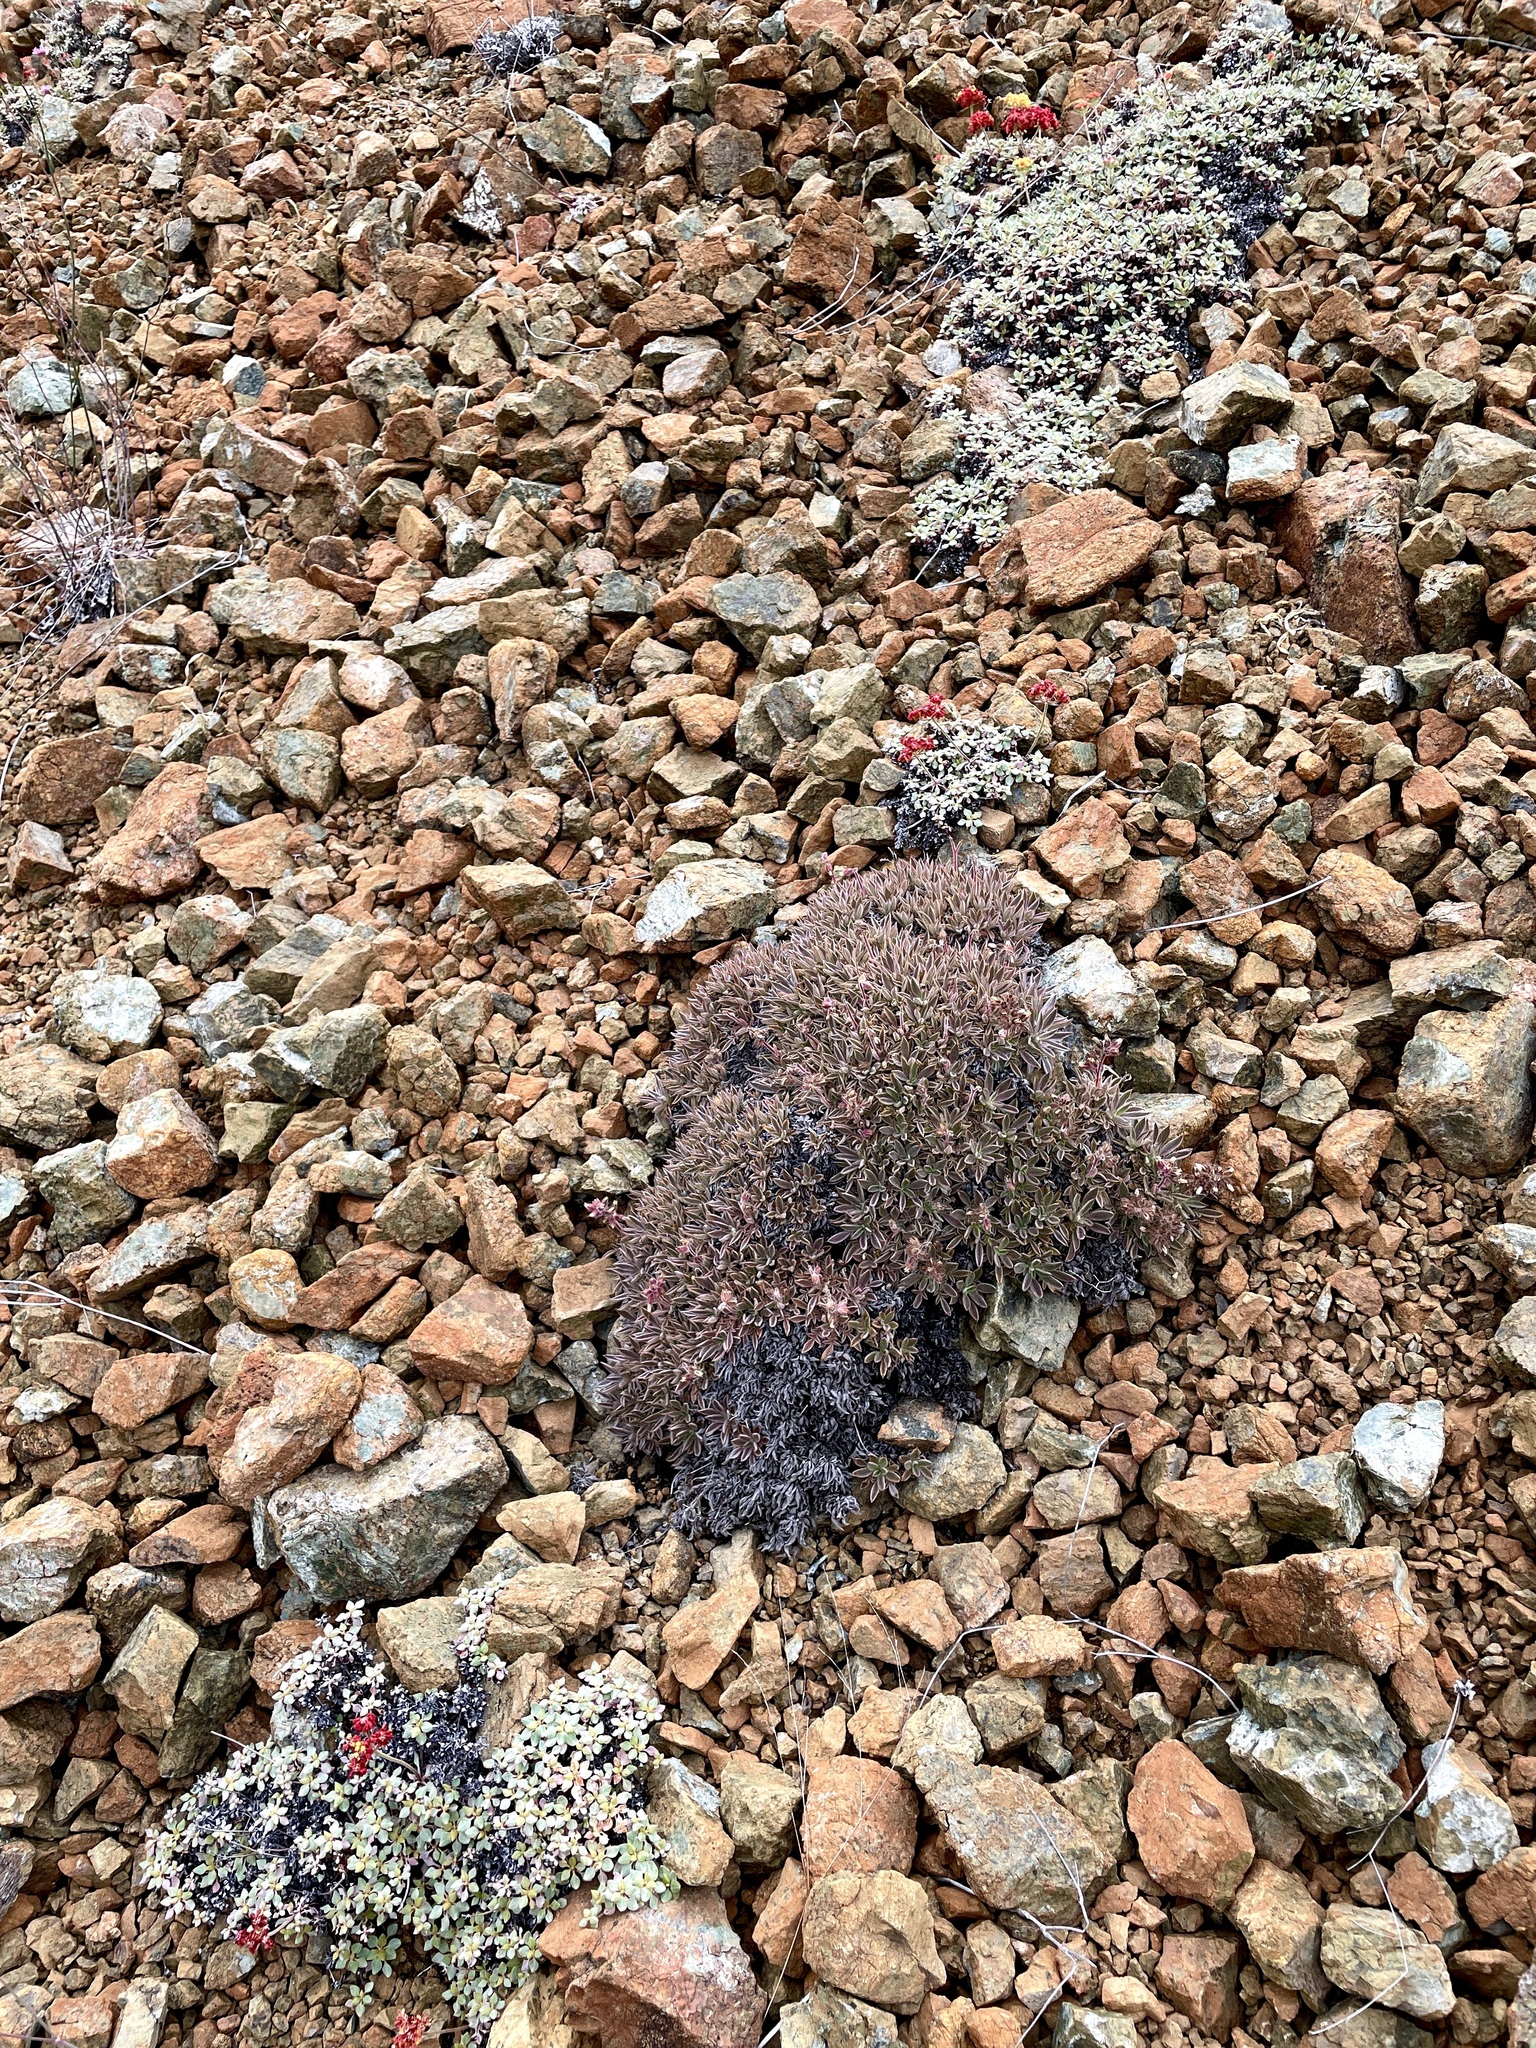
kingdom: Plantae
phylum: Tracheophyta
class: Magnoliopsida
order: Boraginales
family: Hydrophyllaceae
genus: Phacelia
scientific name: Phacelia corymbosa
